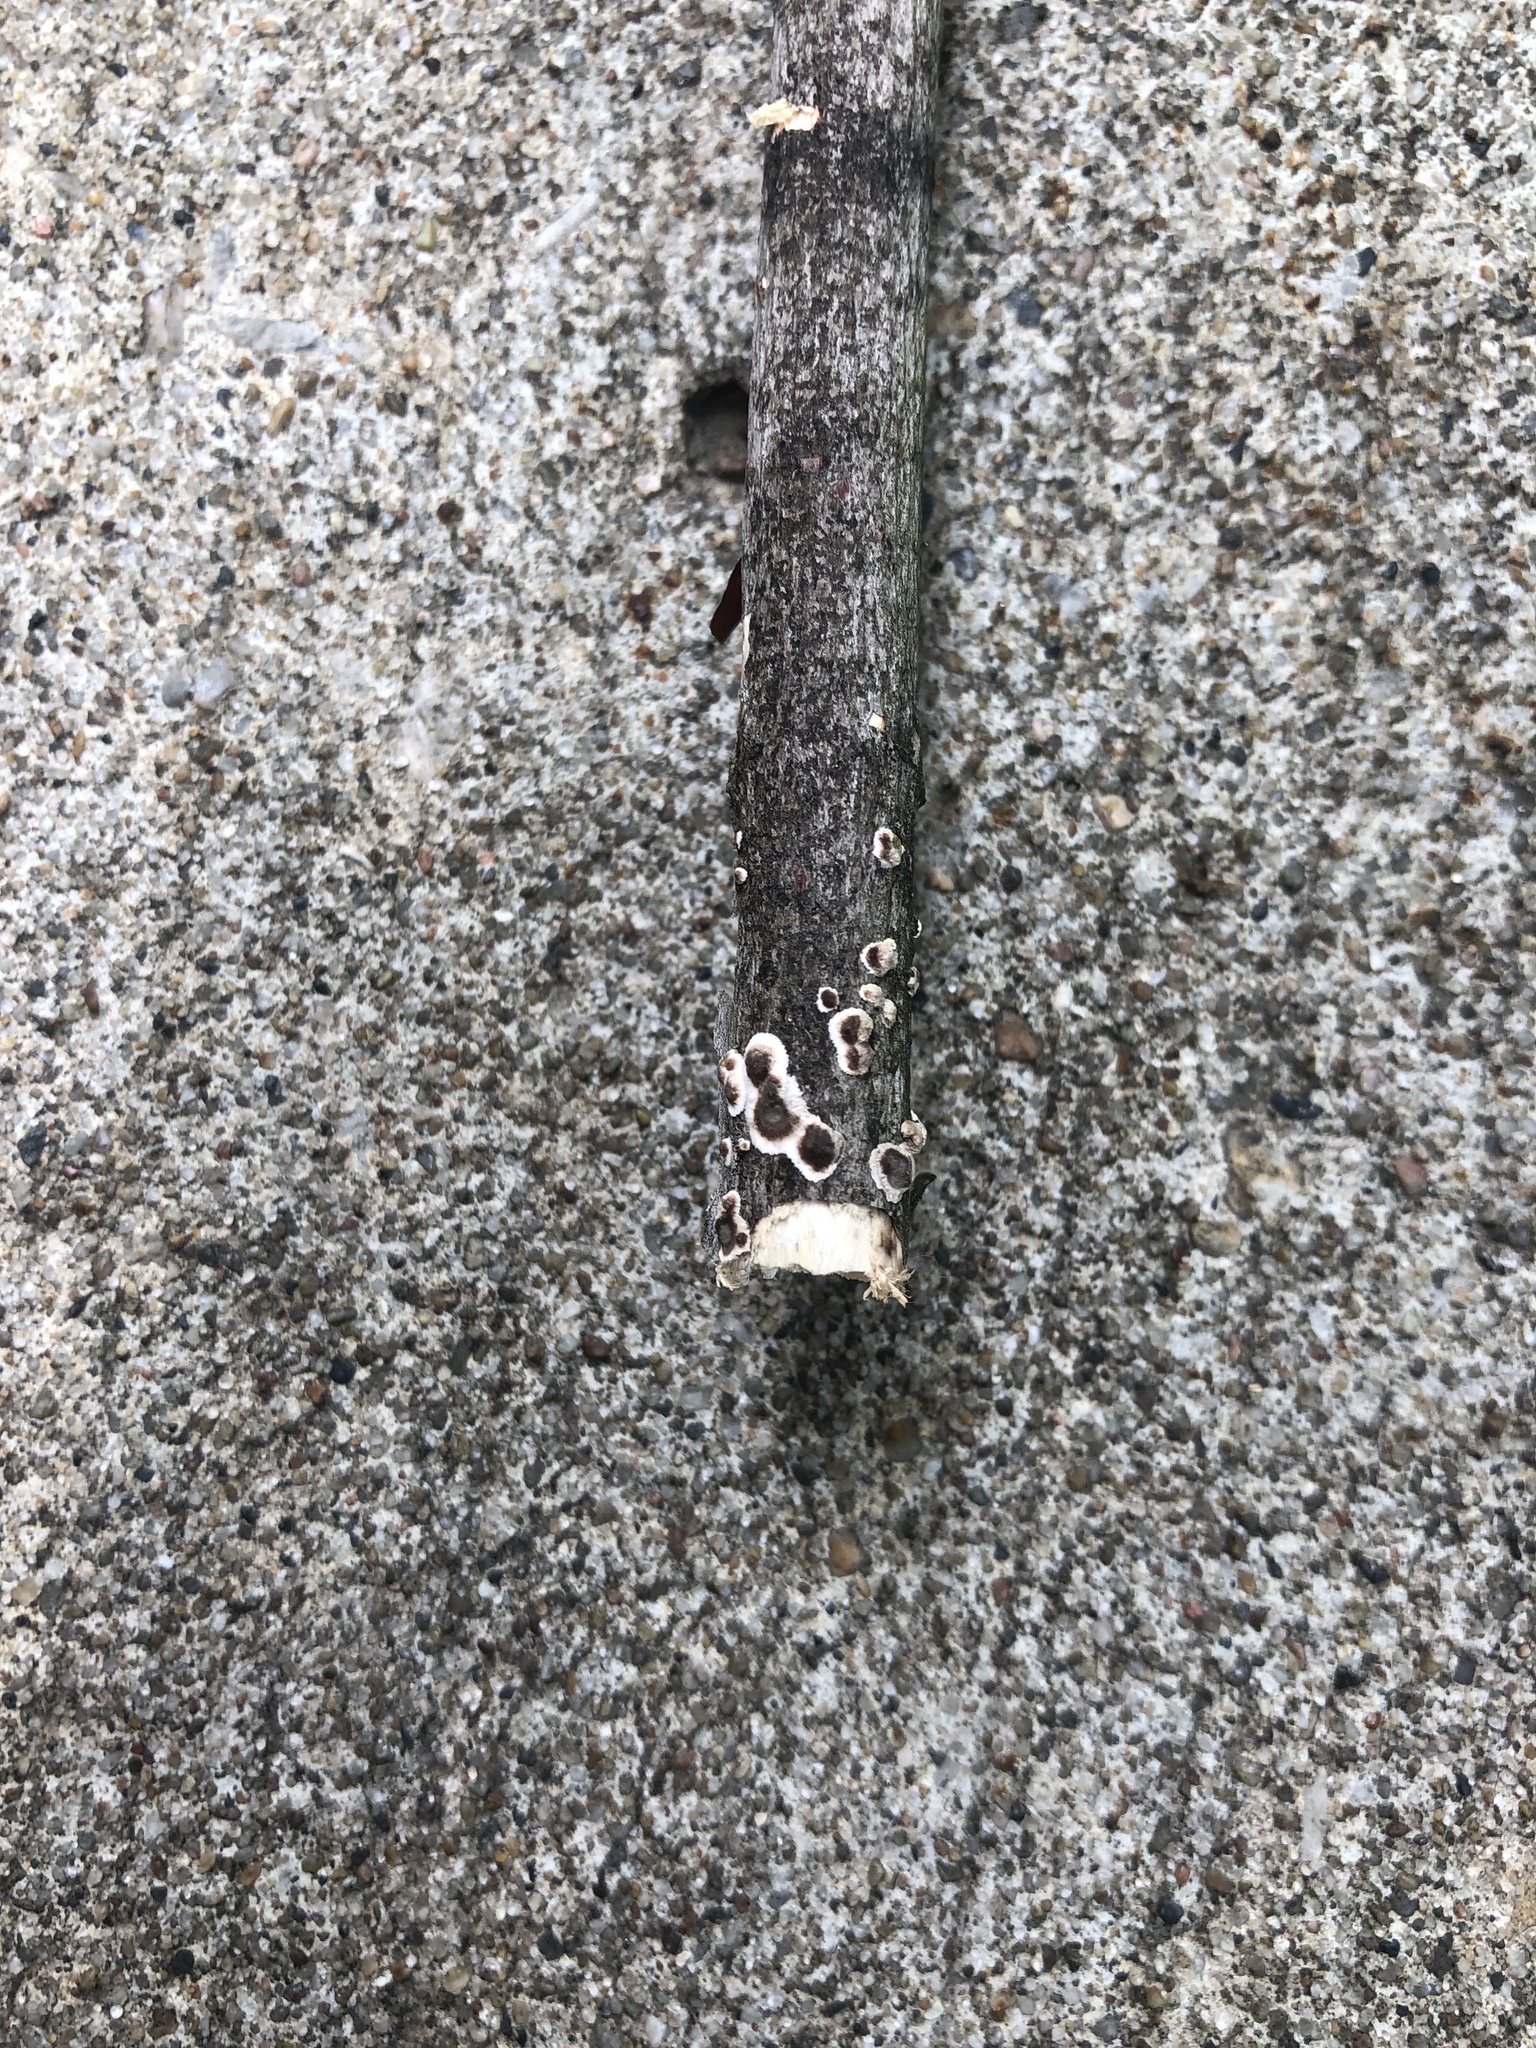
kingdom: Fungi
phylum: Basidiomycota
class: Agaricomycetes
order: Russulales
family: Peniophoraceae
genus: Peniophora
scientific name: Peniophora albobadia
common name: Giraffe spots
